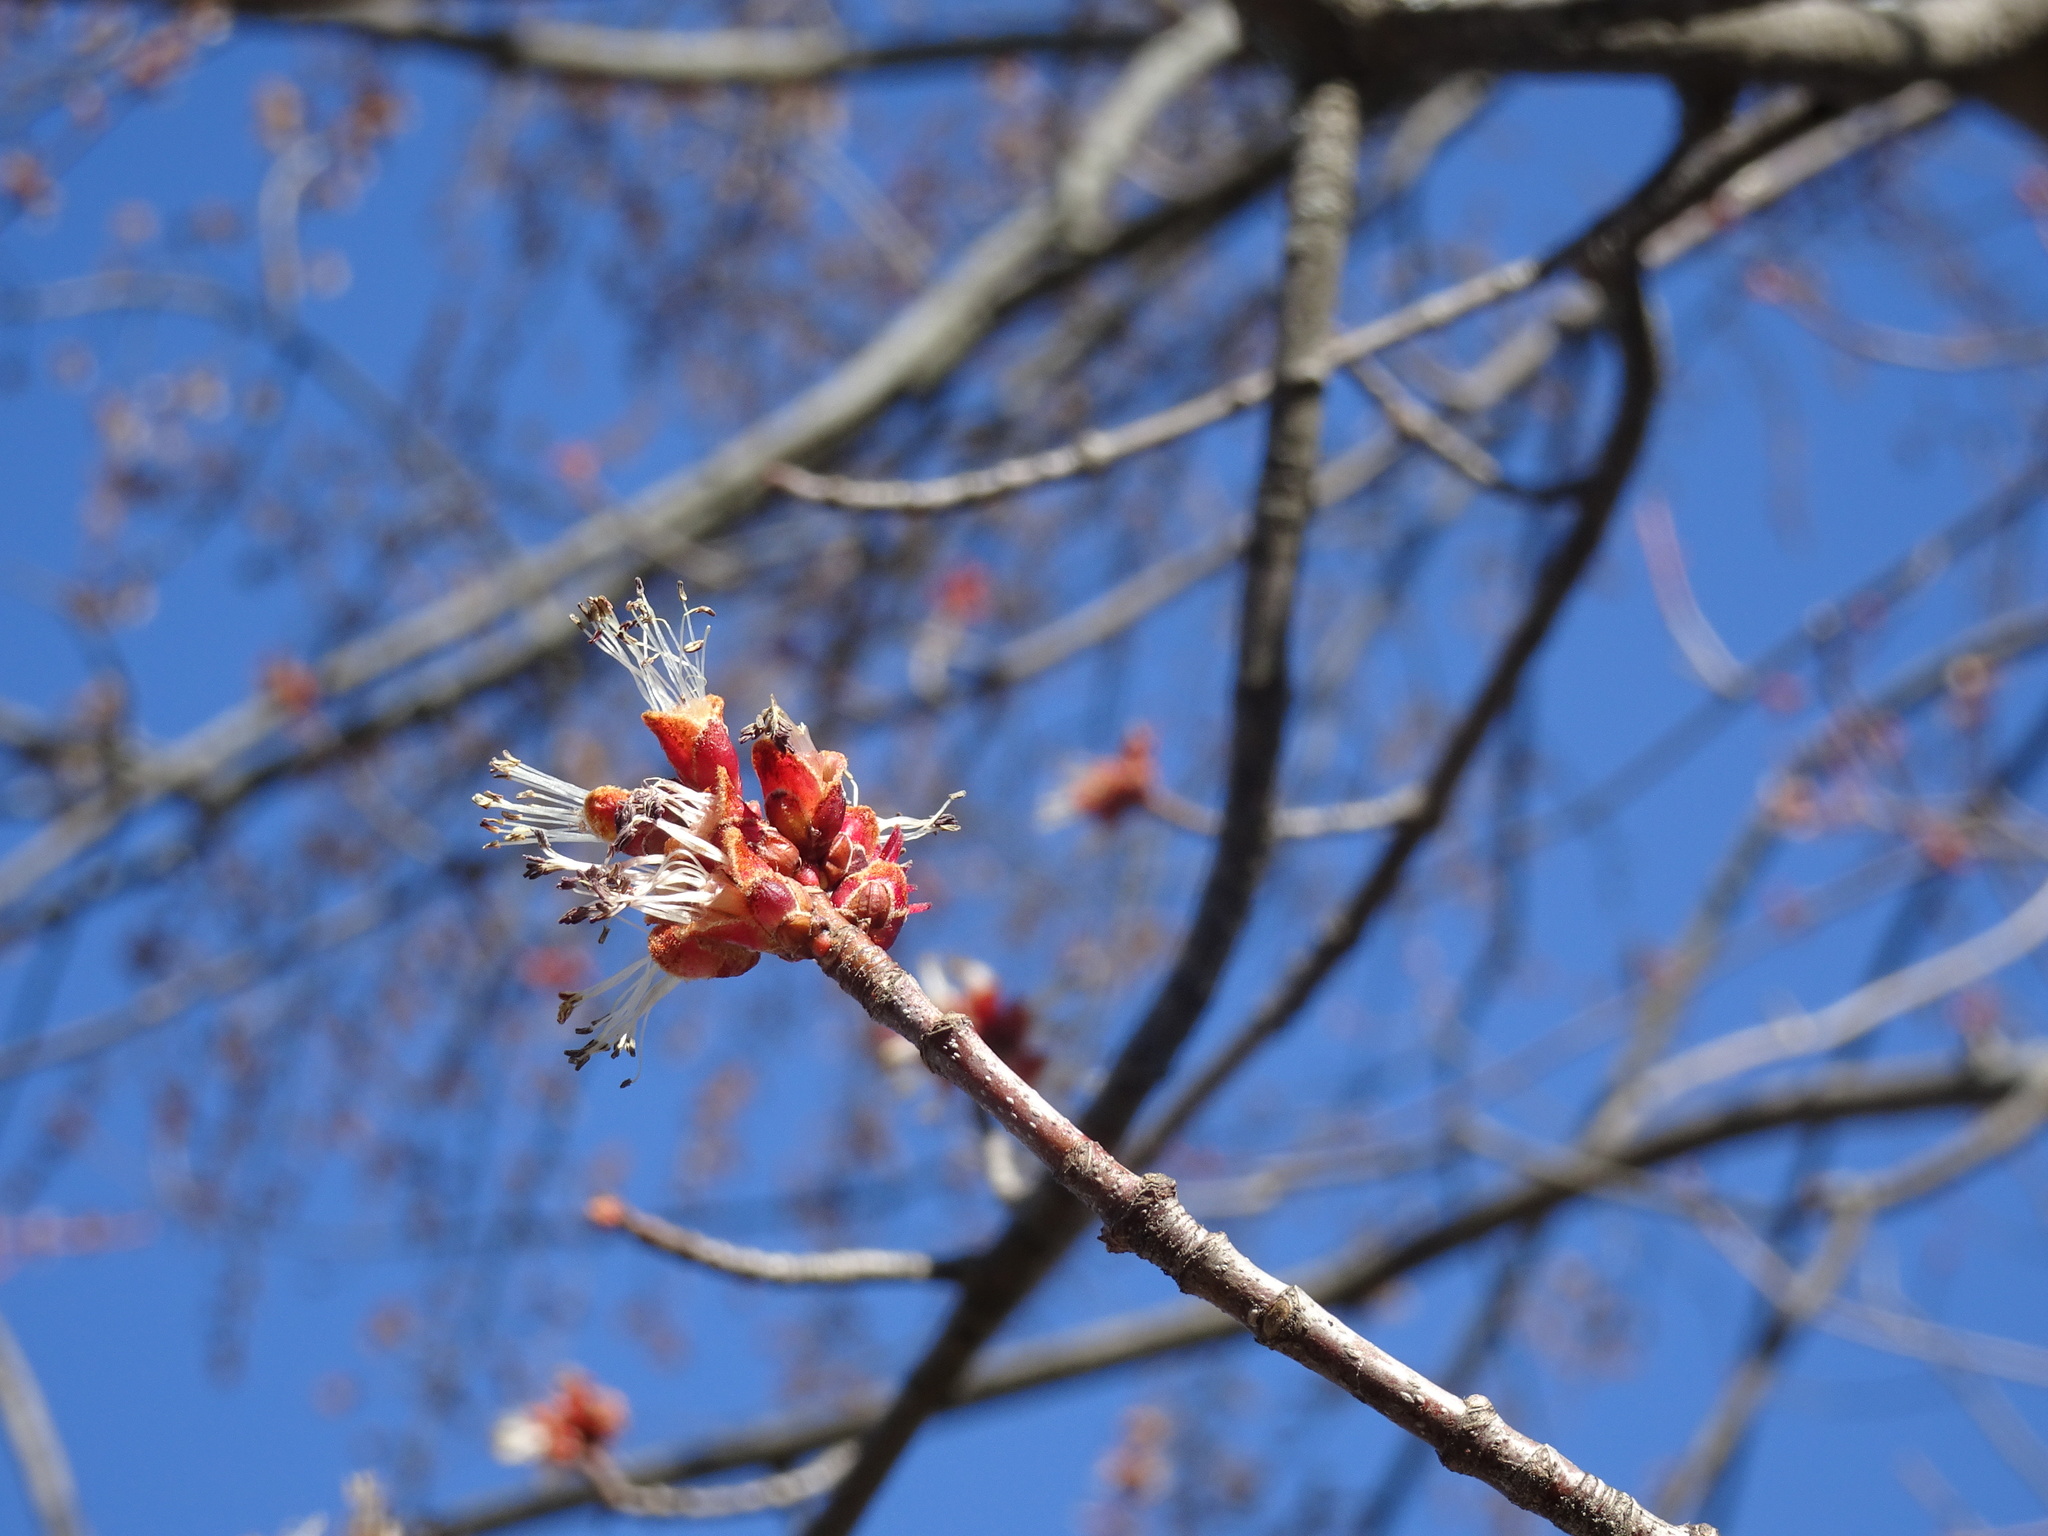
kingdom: Plantae
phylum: Tracheophyta
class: Magnoliopsida
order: Sapindales
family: Sapindaceae
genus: Acer
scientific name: Acer saccharinum
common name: Silver maple
